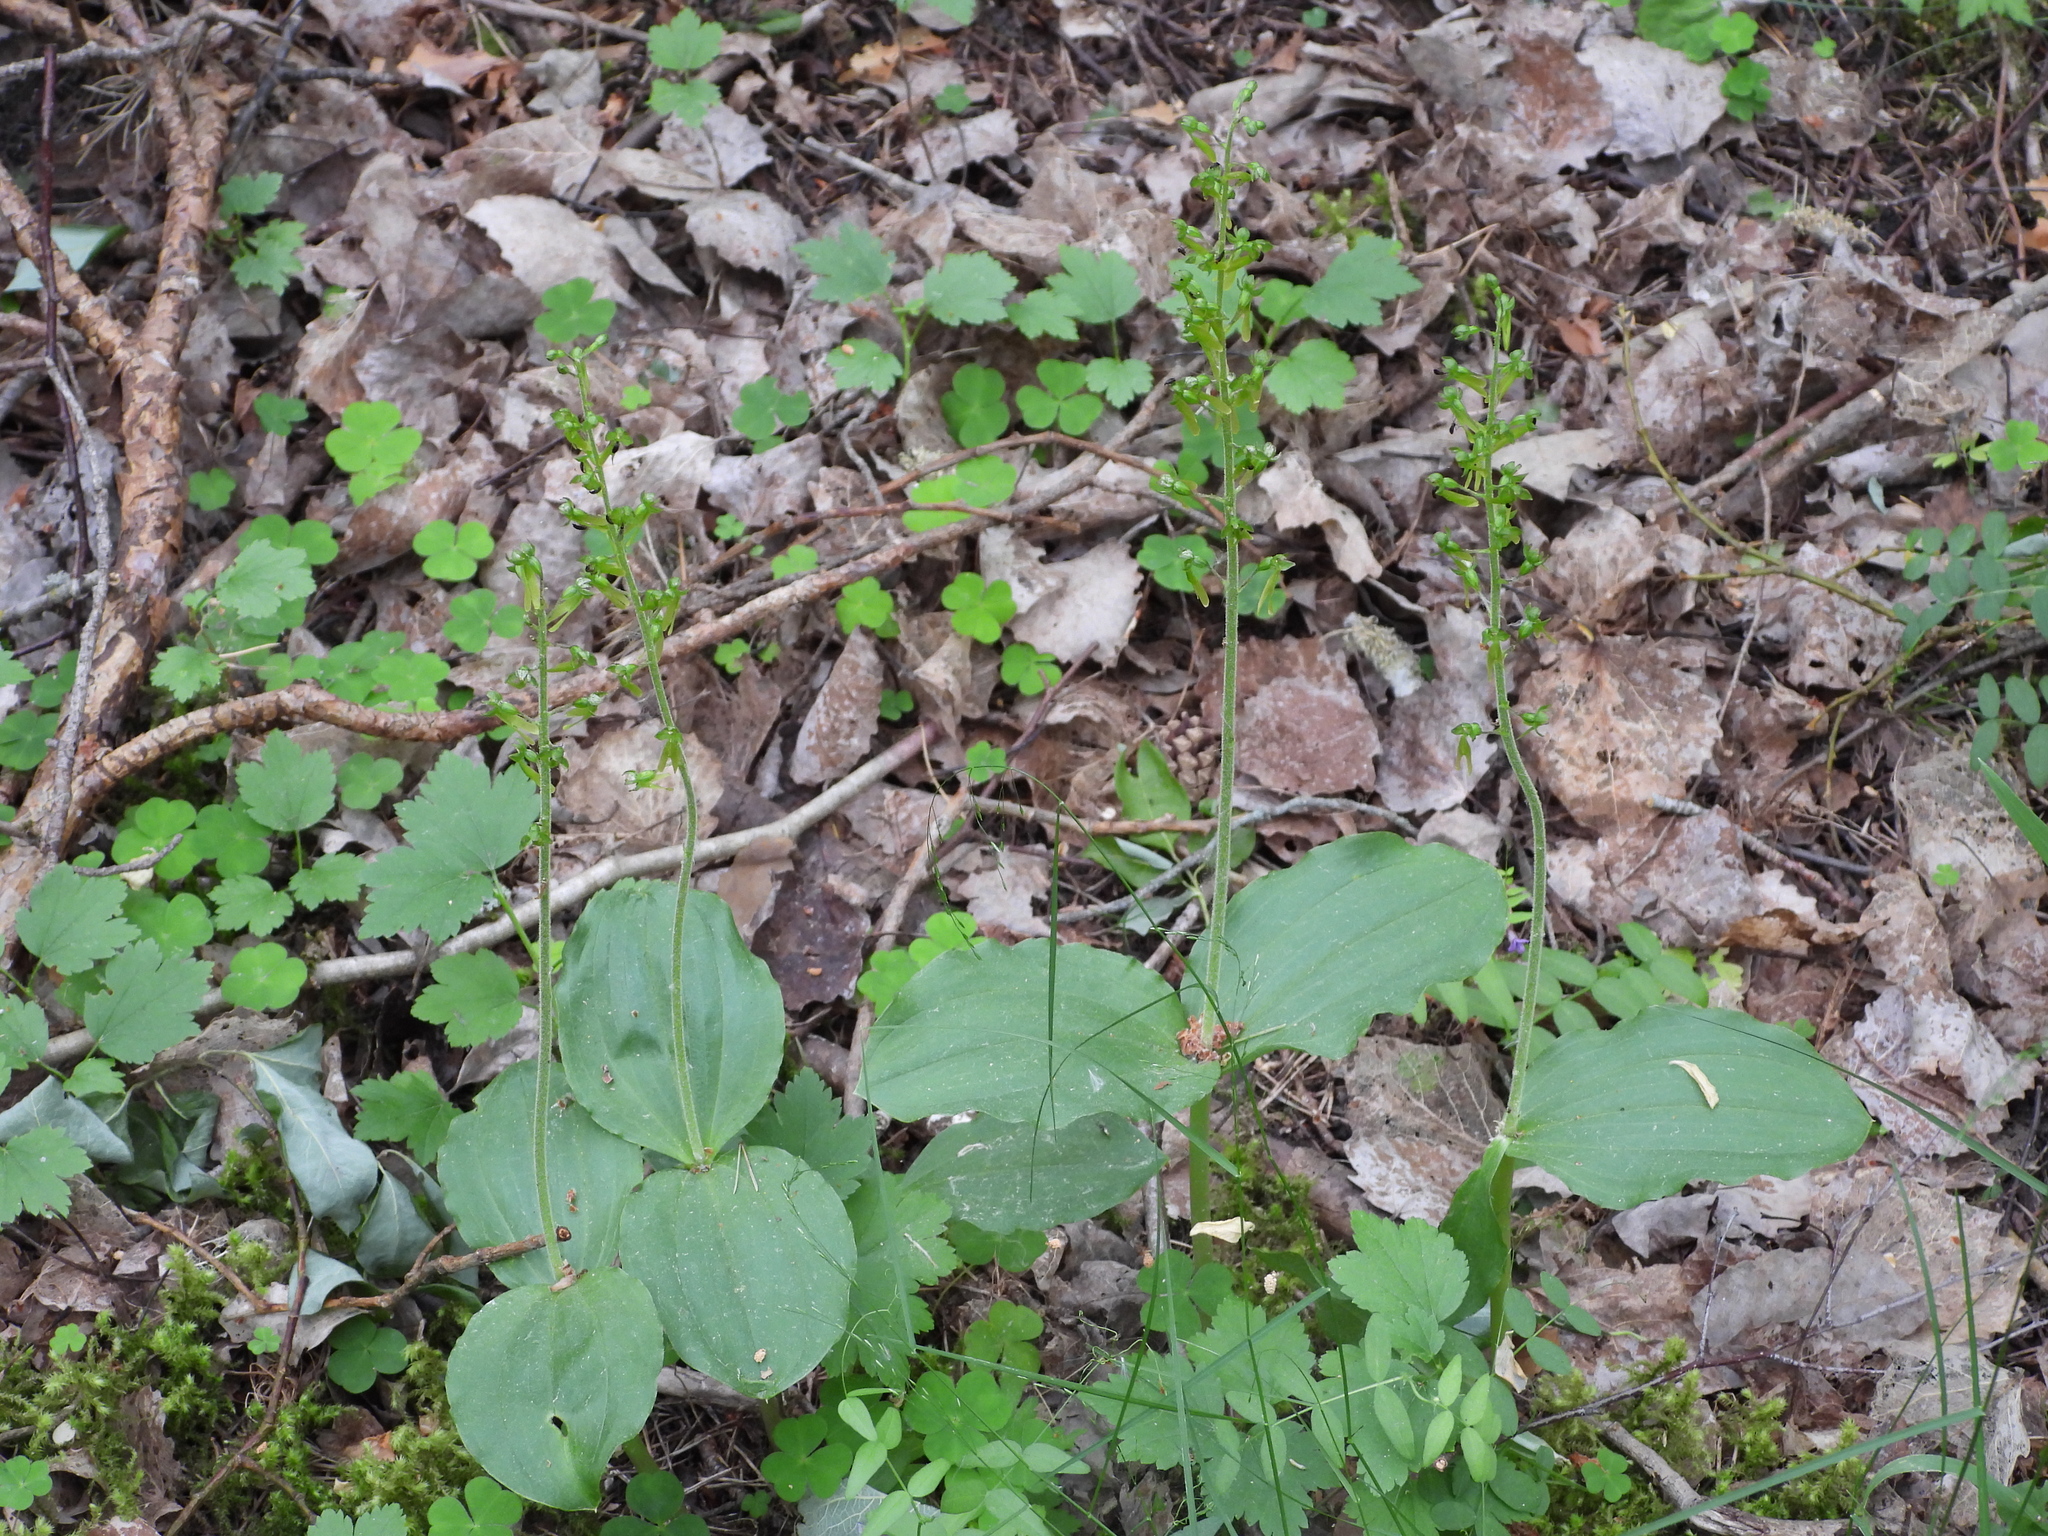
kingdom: Plantae
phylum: Tracheophyta
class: Liliopsida
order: Asparagales
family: Orchidaceae
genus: Neottia
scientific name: Neottia ovata
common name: Common twayblade
